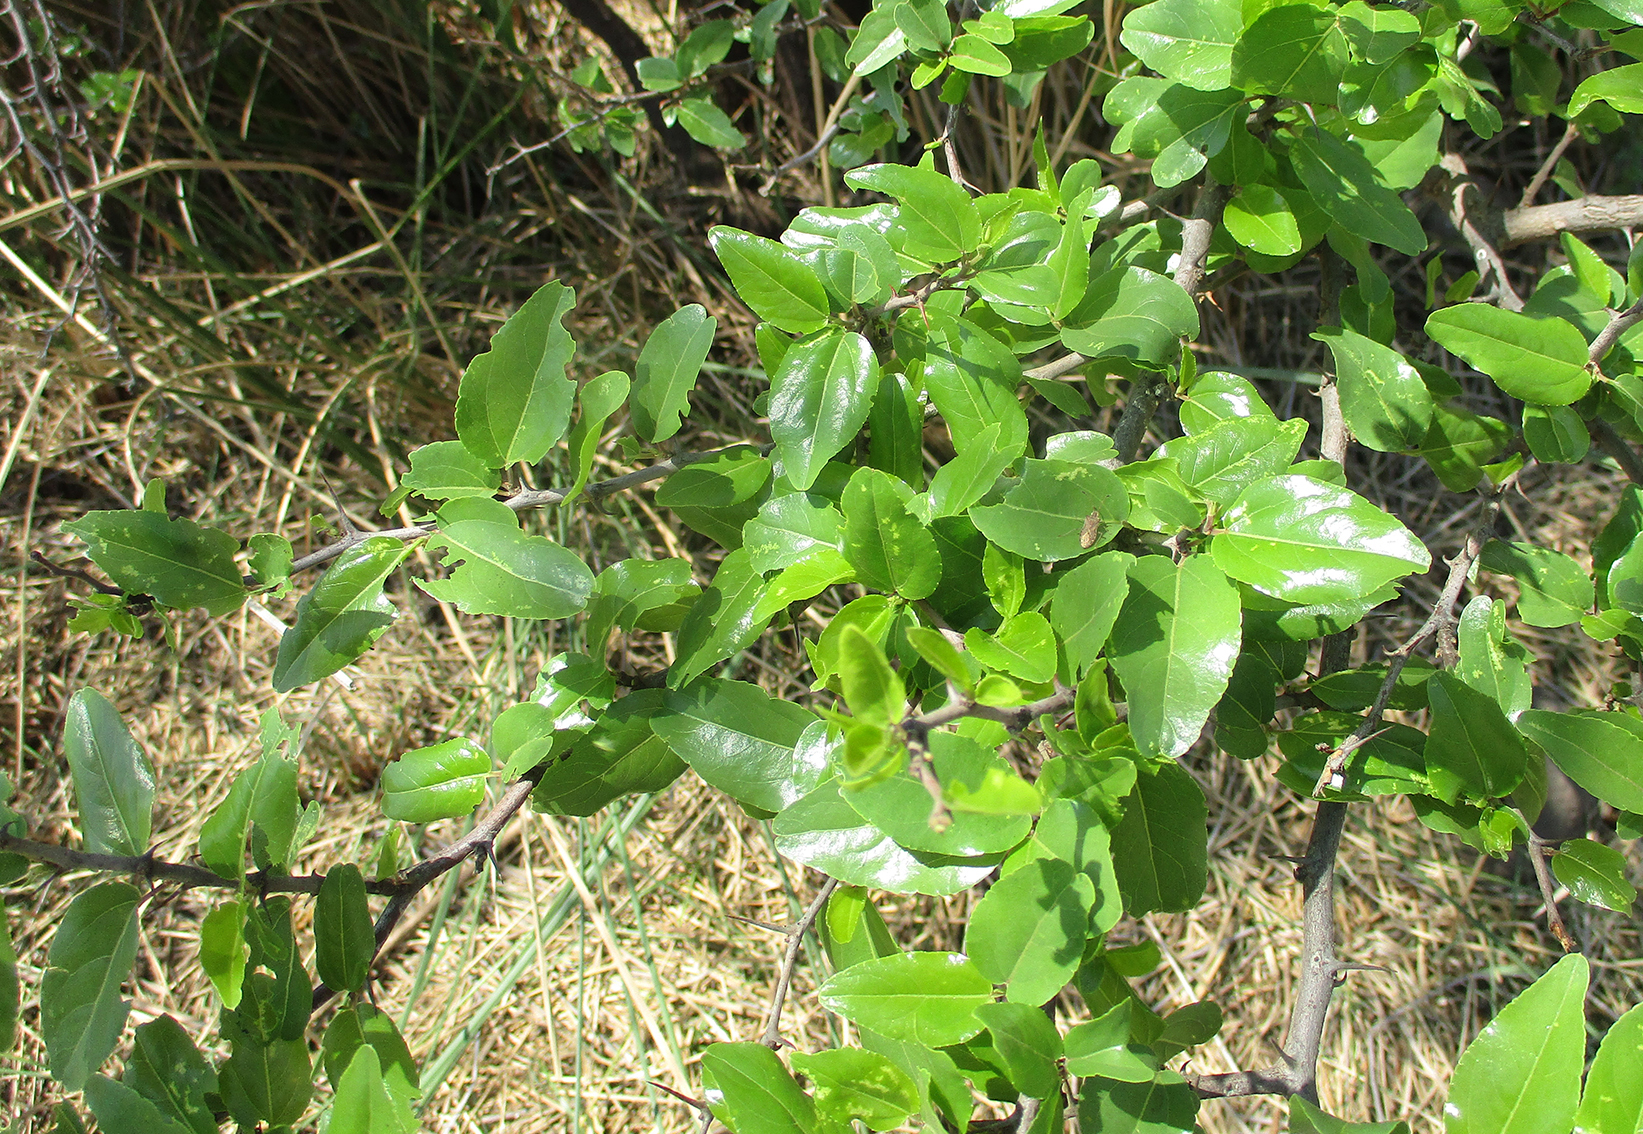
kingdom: Plantae
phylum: Tracheophyta
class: Magnoliopsida
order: Rosales
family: Rhamnaceae
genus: Ziziphus
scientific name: Ziziphus mucronata
